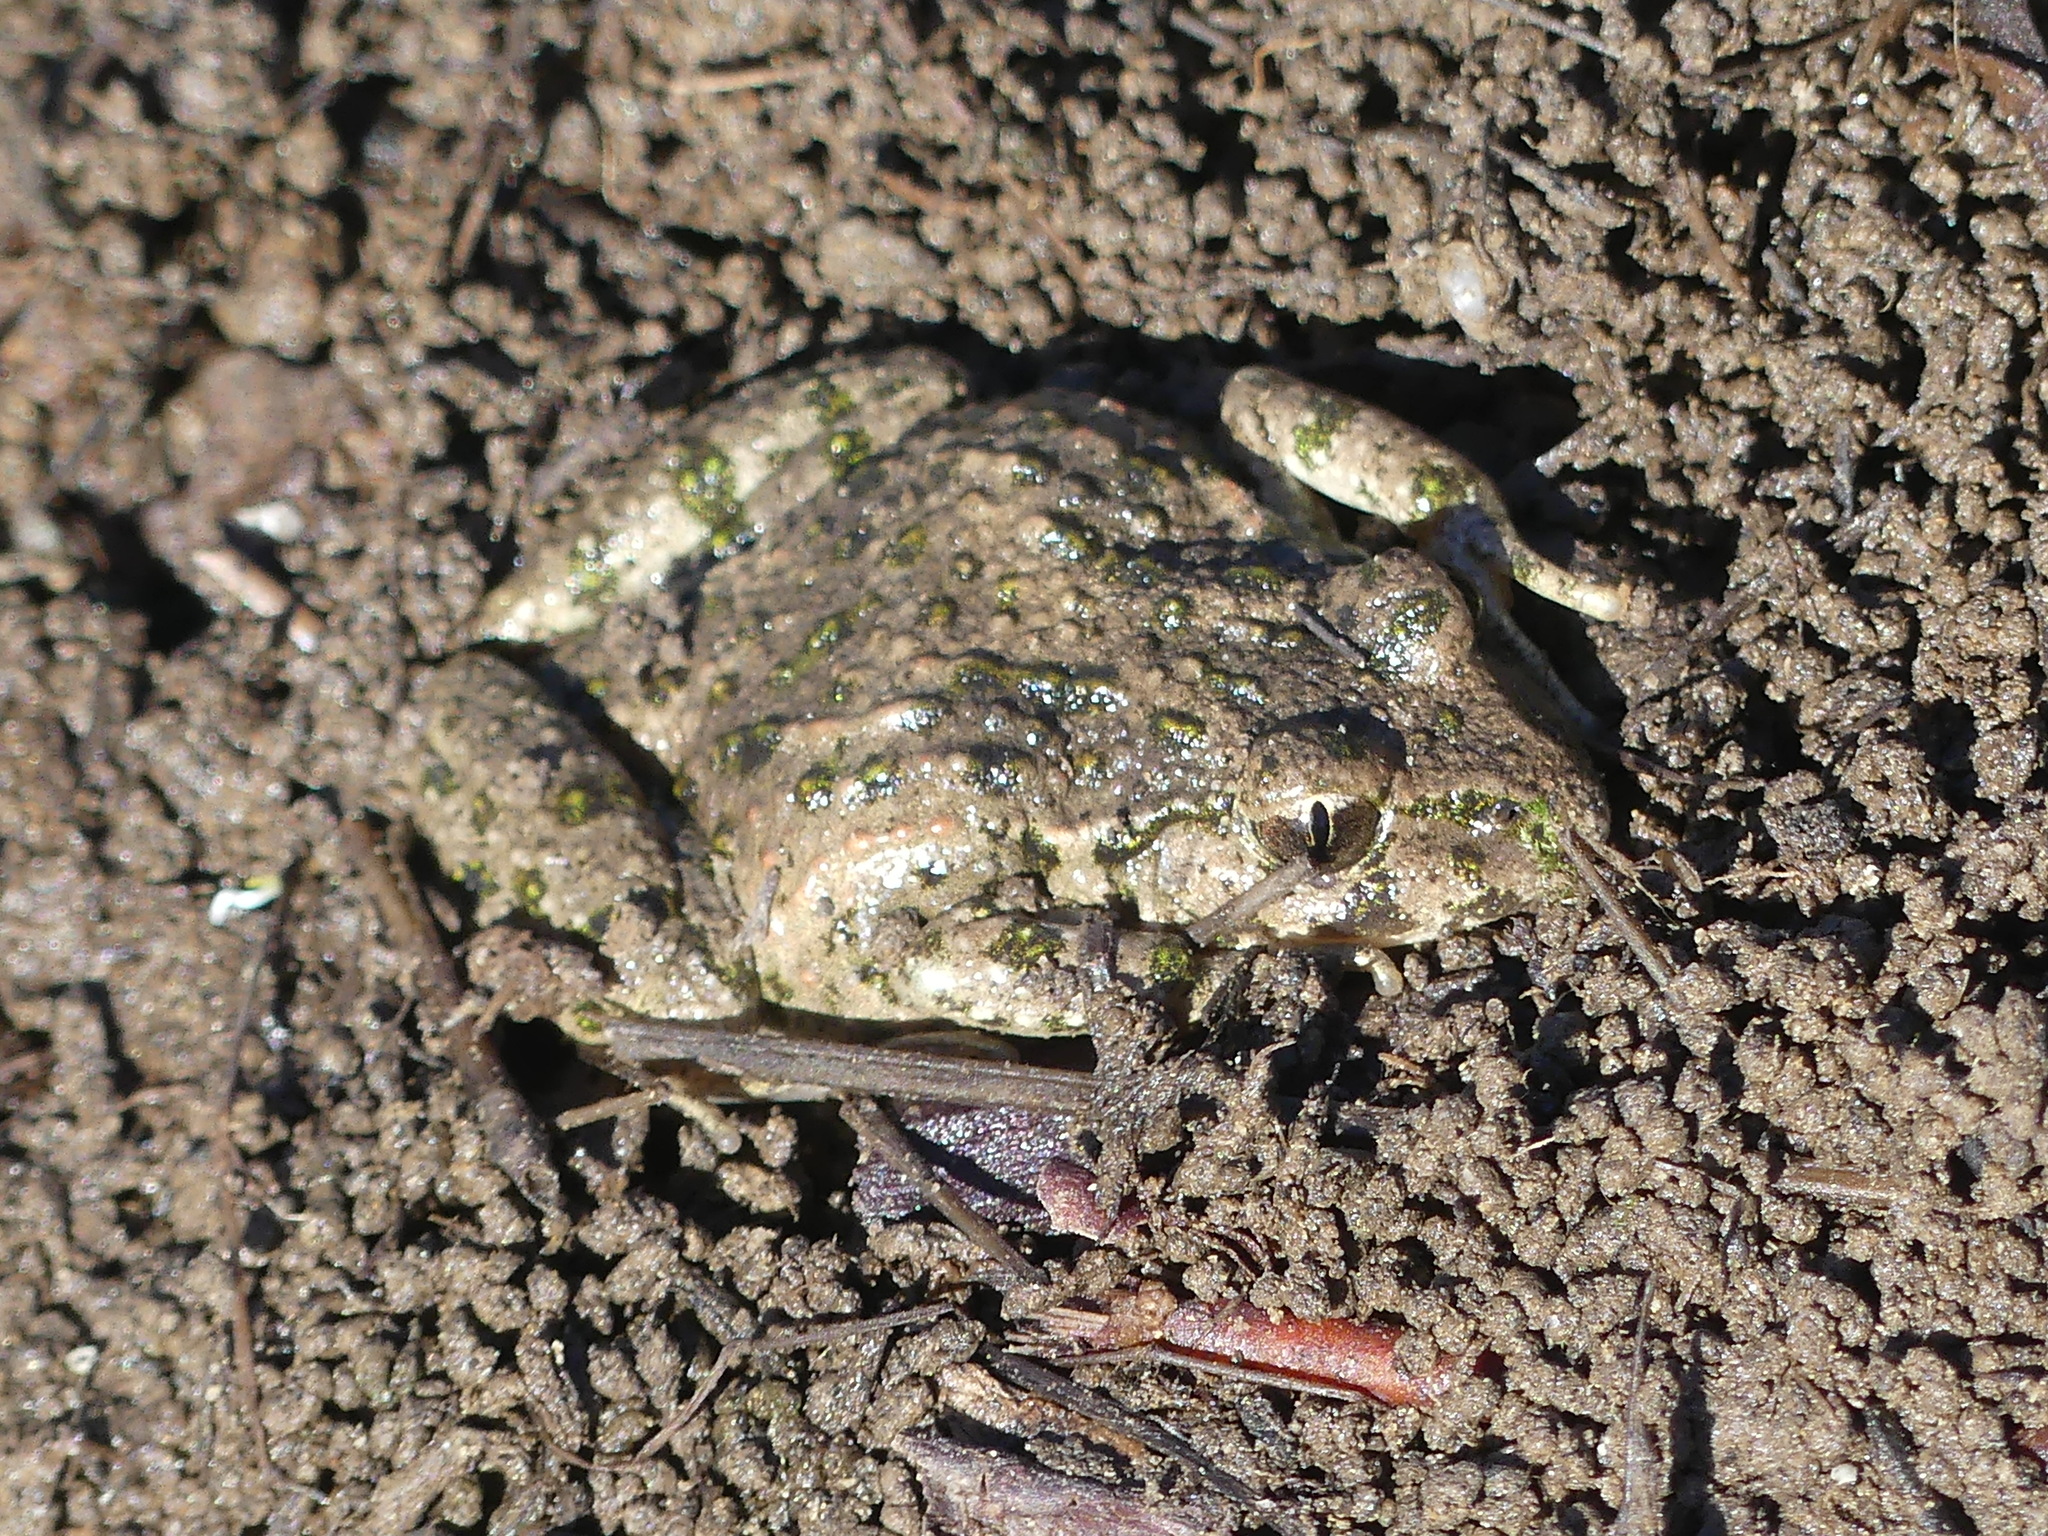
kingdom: Animalia
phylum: Chordata
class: Amphibia
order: Anura
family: Pelodytidae
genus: Pelodytes
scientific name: Pelodytes punctatus
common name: Parsley frog
